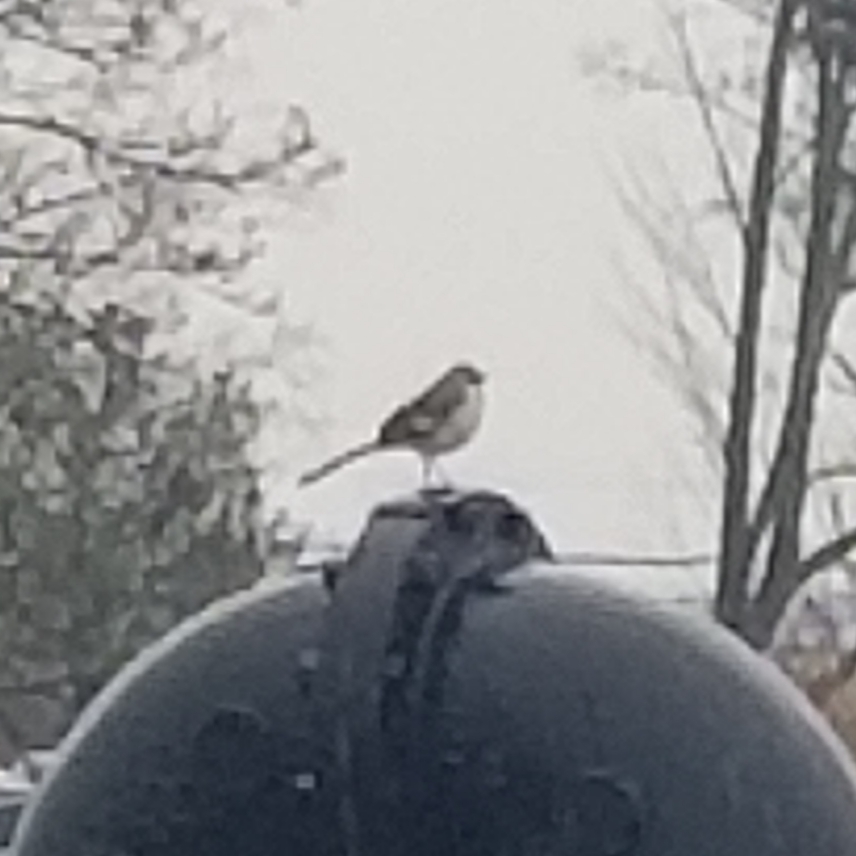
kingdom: Animalia
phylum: Chordata
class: Aves
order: Passeriformes
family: Mimidae
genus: Mimus
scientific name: Mimus polyglottos
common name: Northern mockingbird
